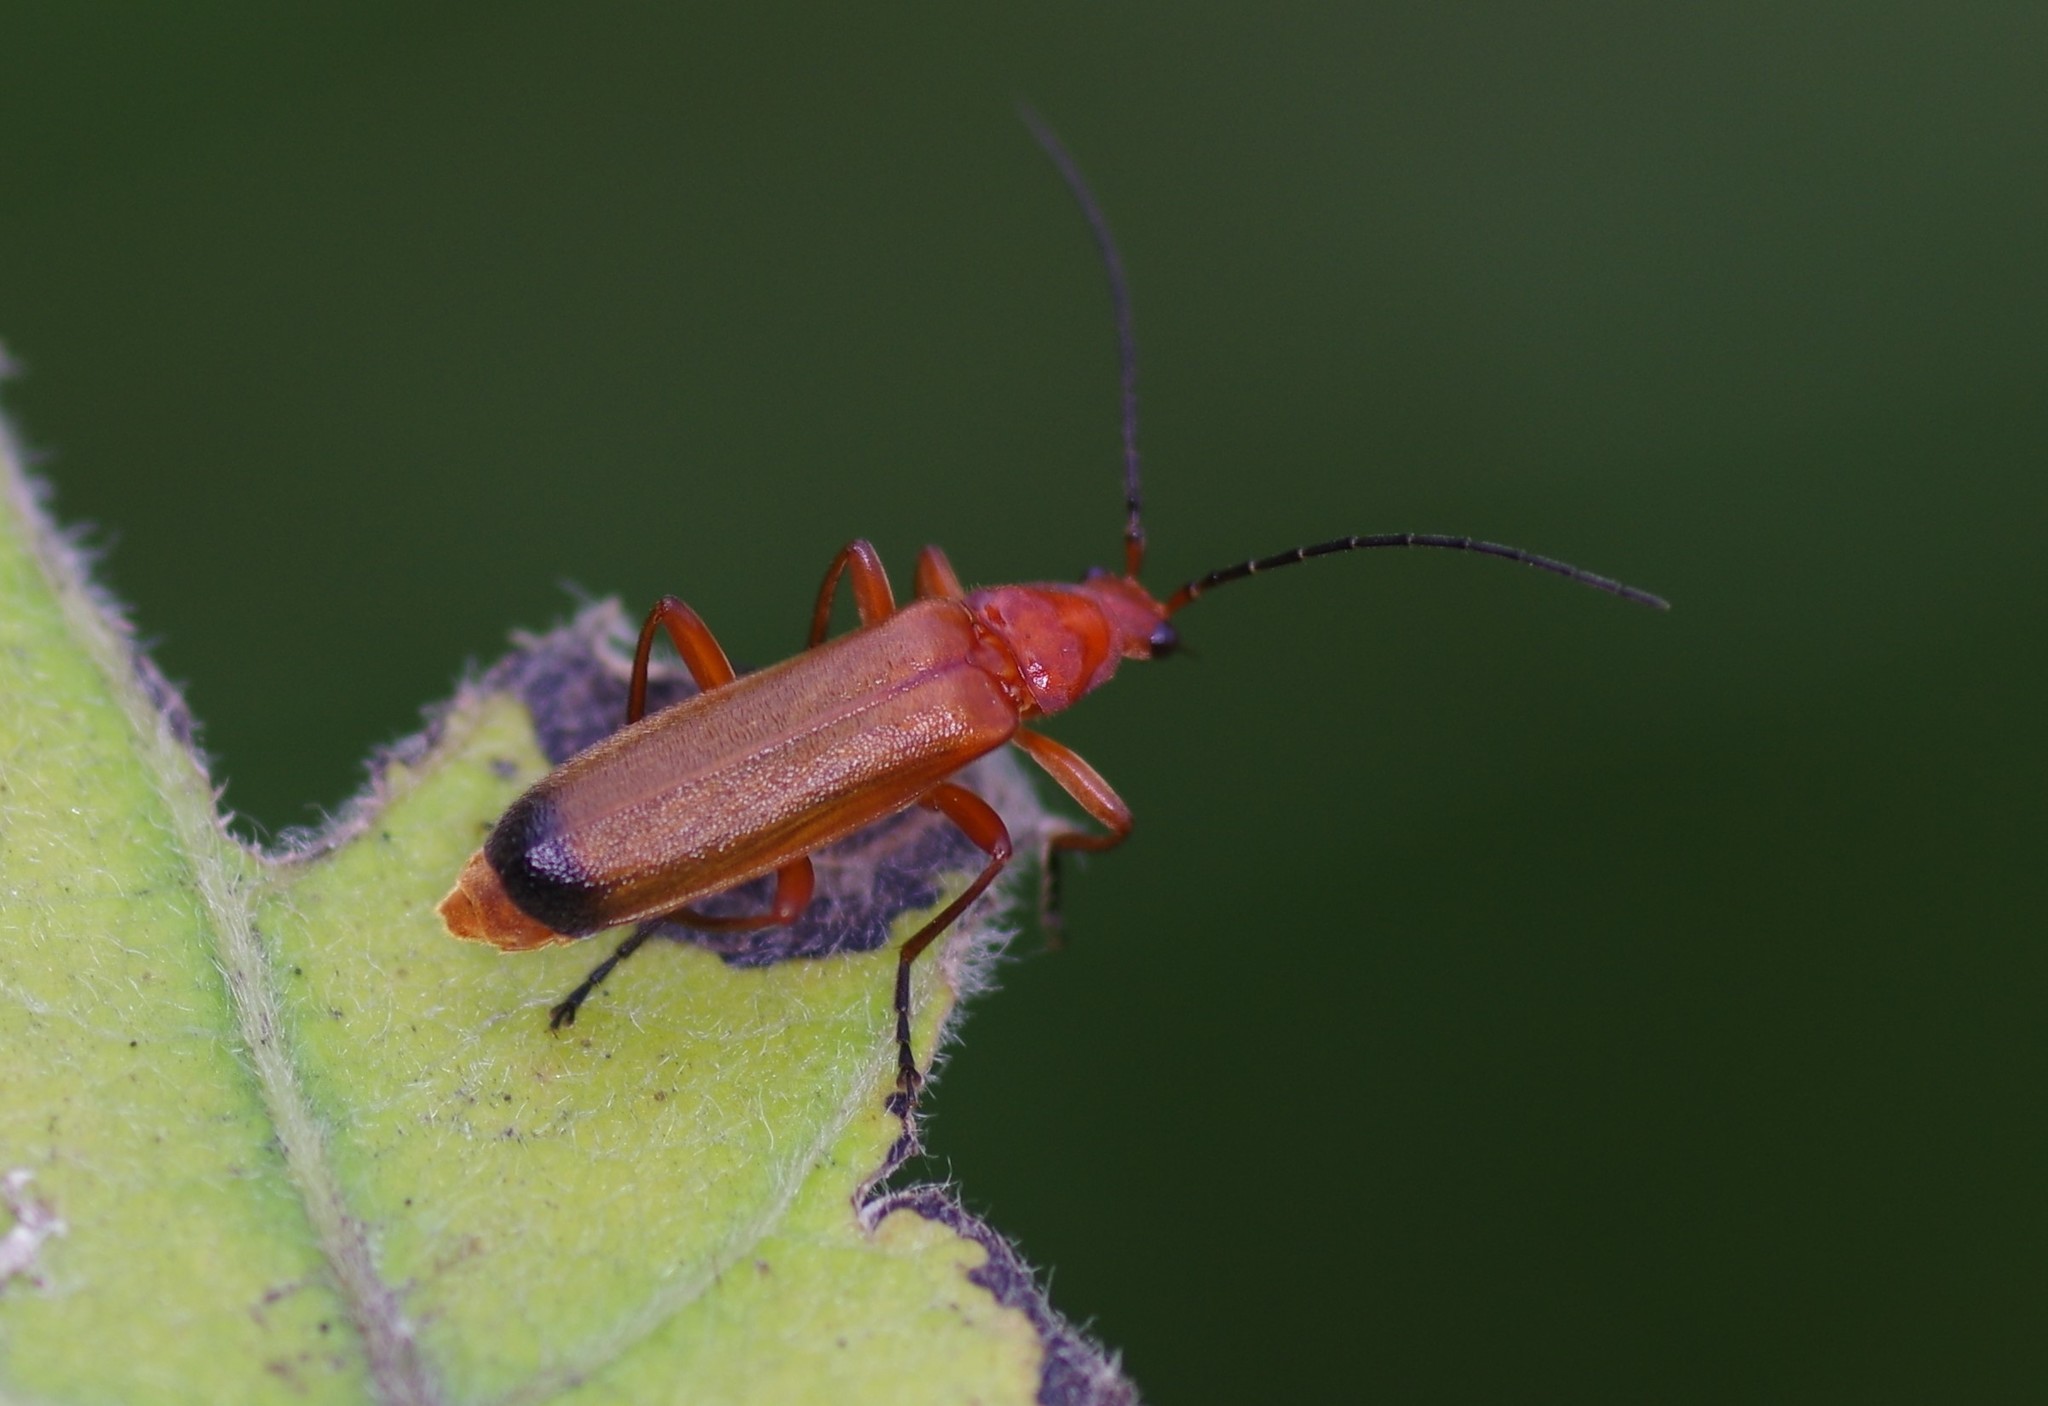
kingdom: Animalia
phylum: Arthropoda
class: Insecta
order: Coleoptera
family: Cantharidae
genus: Rhagonycha
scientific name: Rhagonycha fulva
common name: Common red soldier beetle
